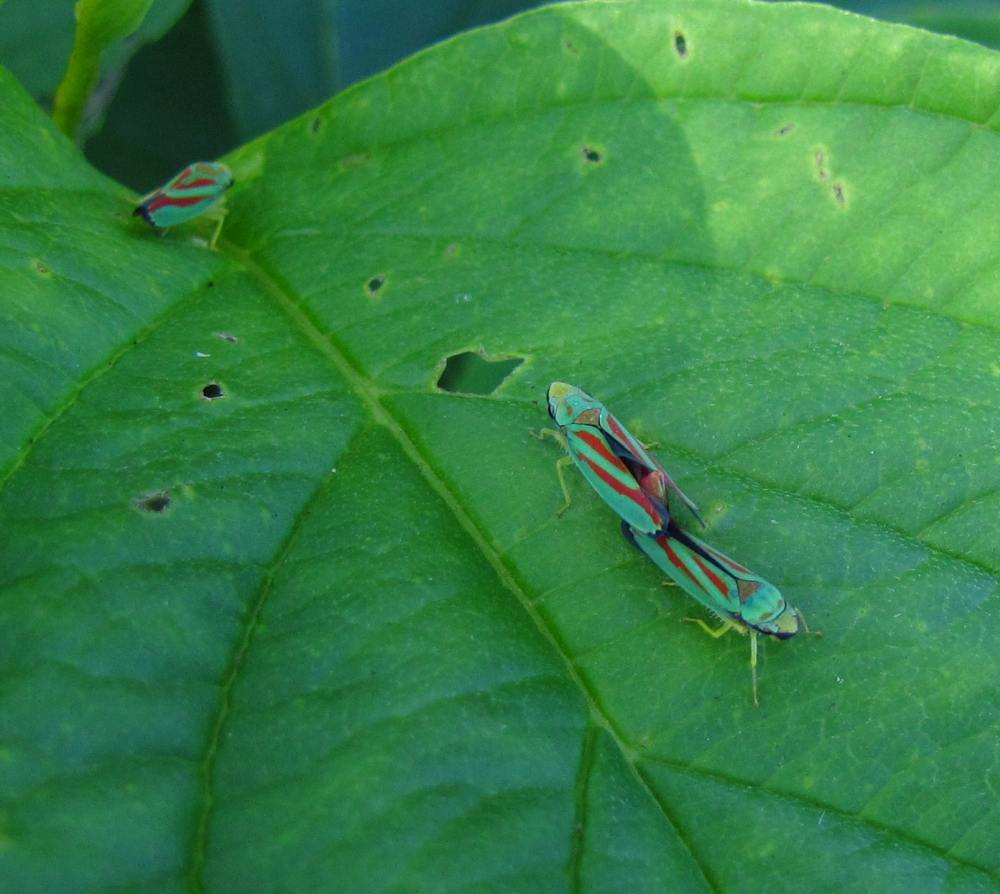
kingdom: Animalia
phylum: Arthropoda
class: Insecta
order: Hemiptera
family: Cicadellidae
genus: Graphocephala
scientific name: Graphocephala fennahi
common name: Rhododendron leafhopper
